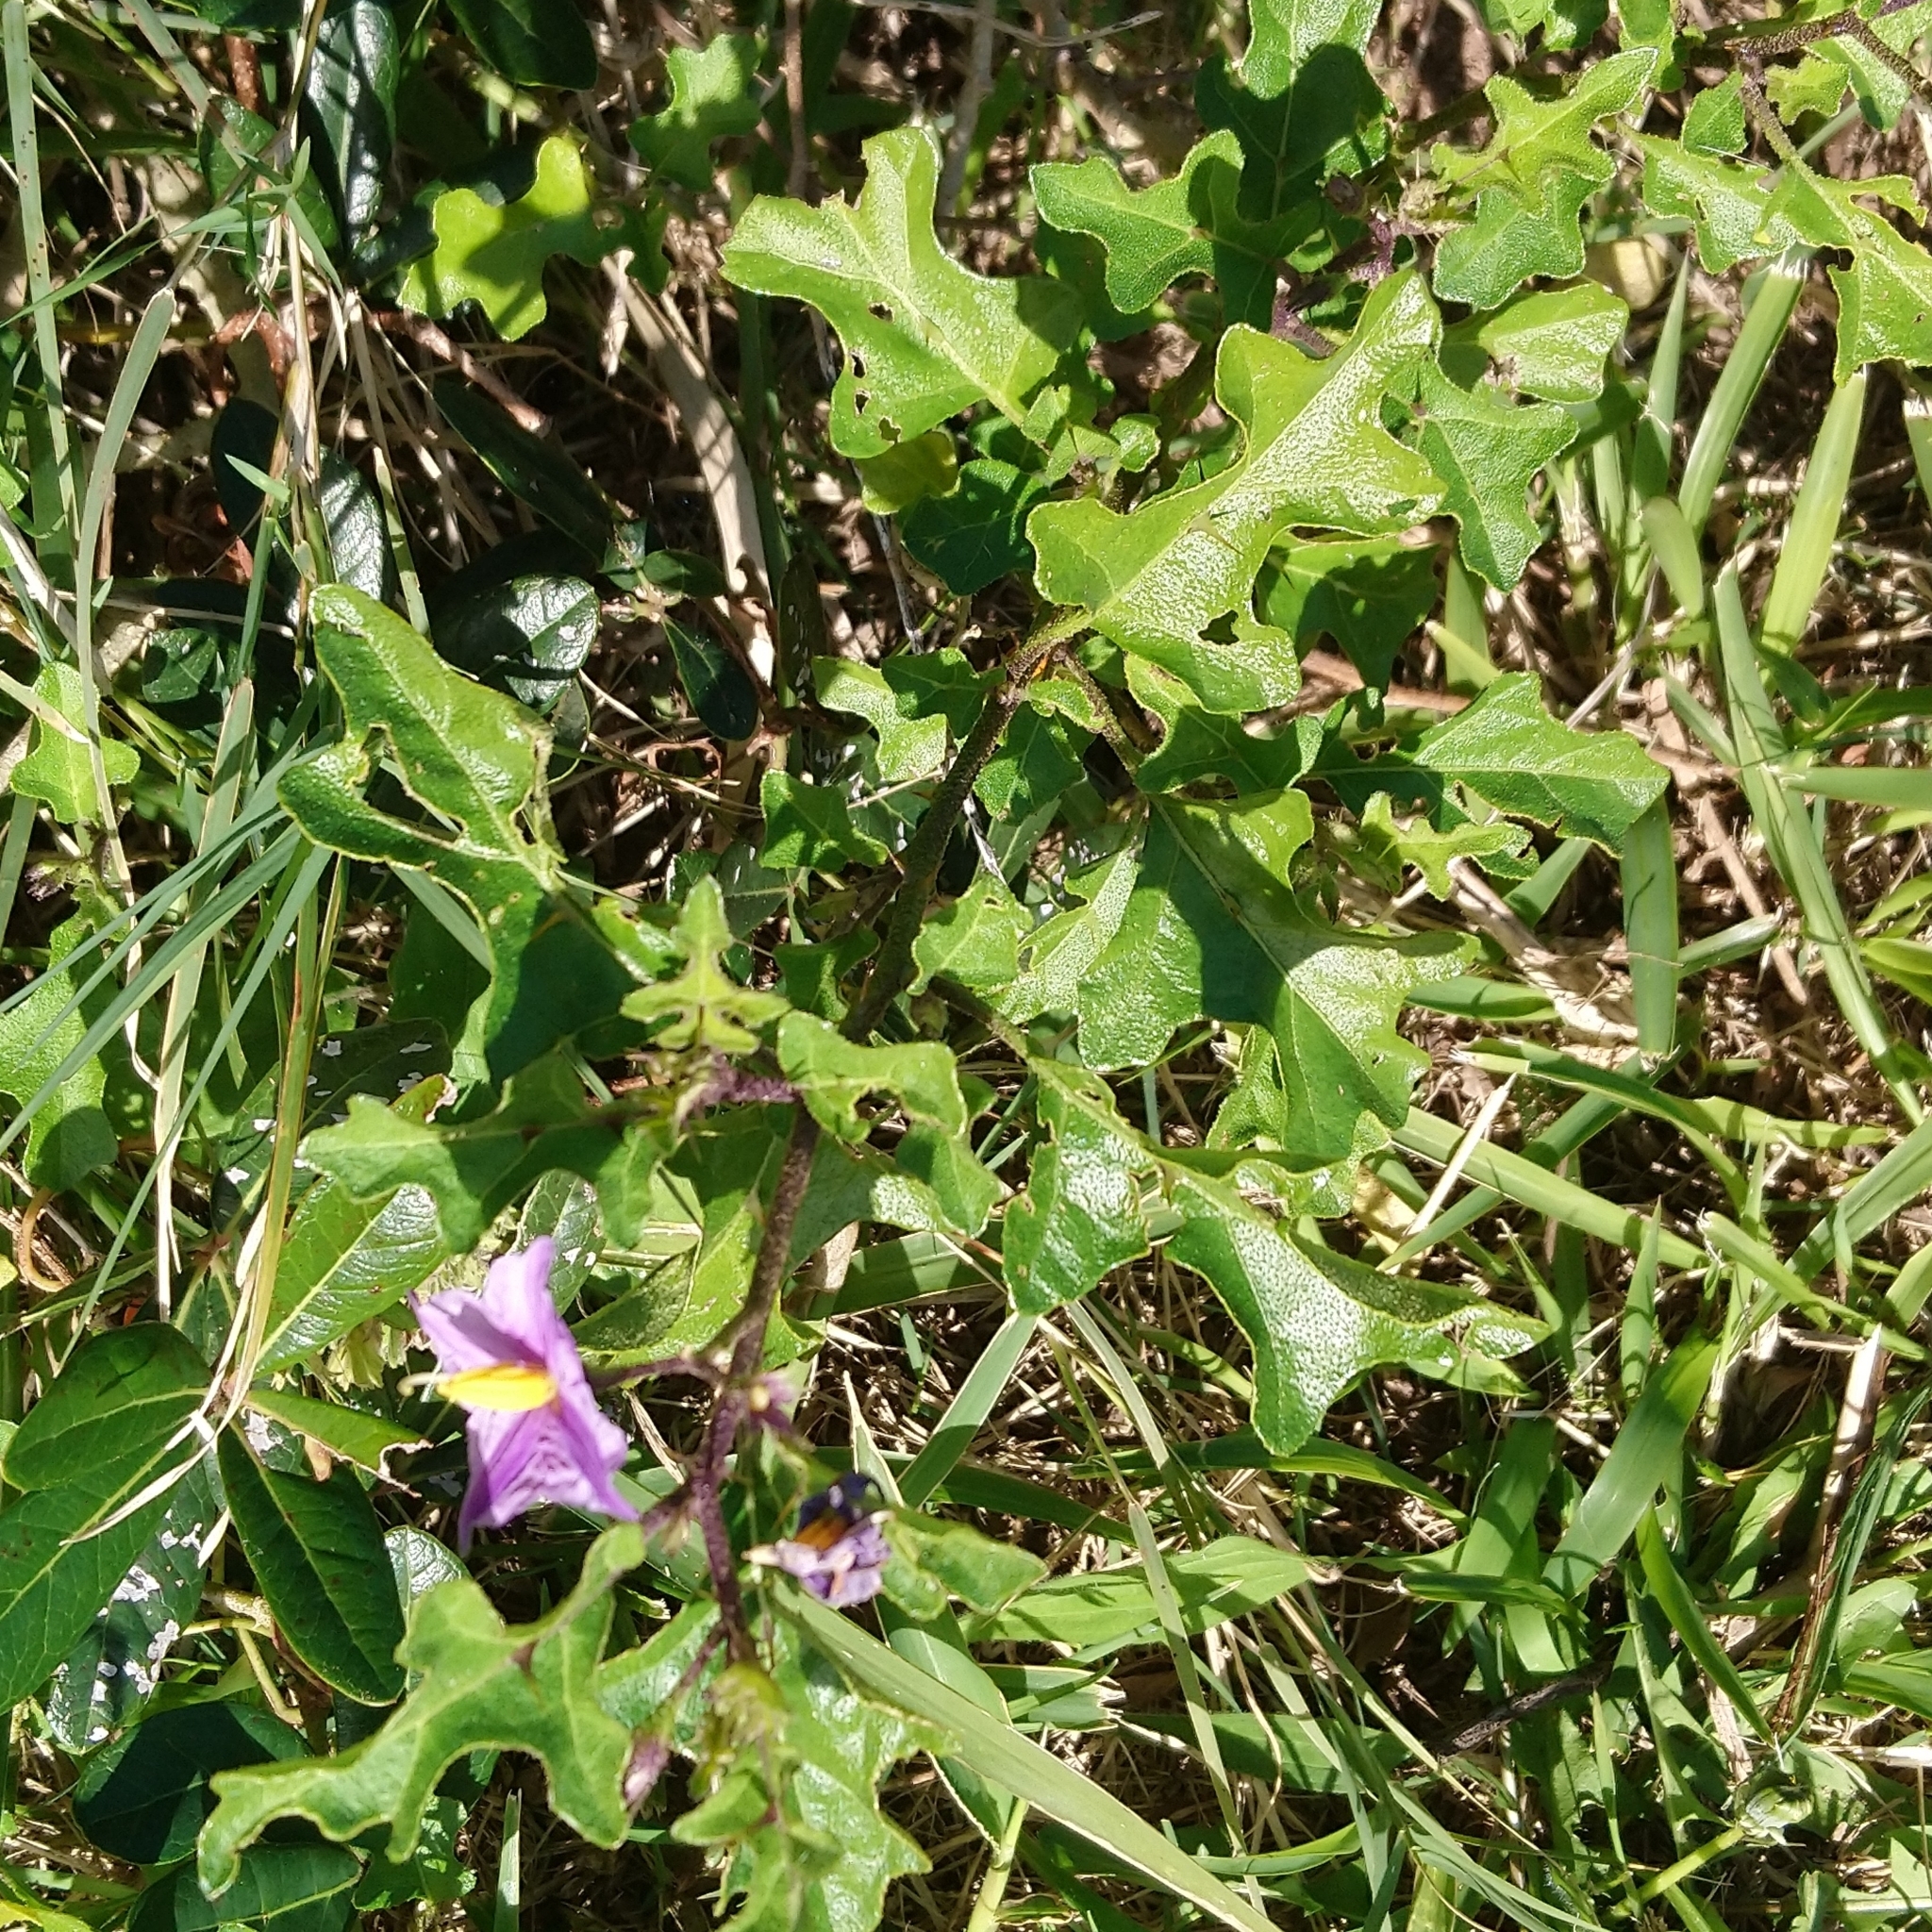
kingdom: Plantae
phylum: Tracheophyta
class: Magnoliopsida
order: Solanales
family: Solanaceae
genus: Solanum
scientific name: Solanum rubetorum
